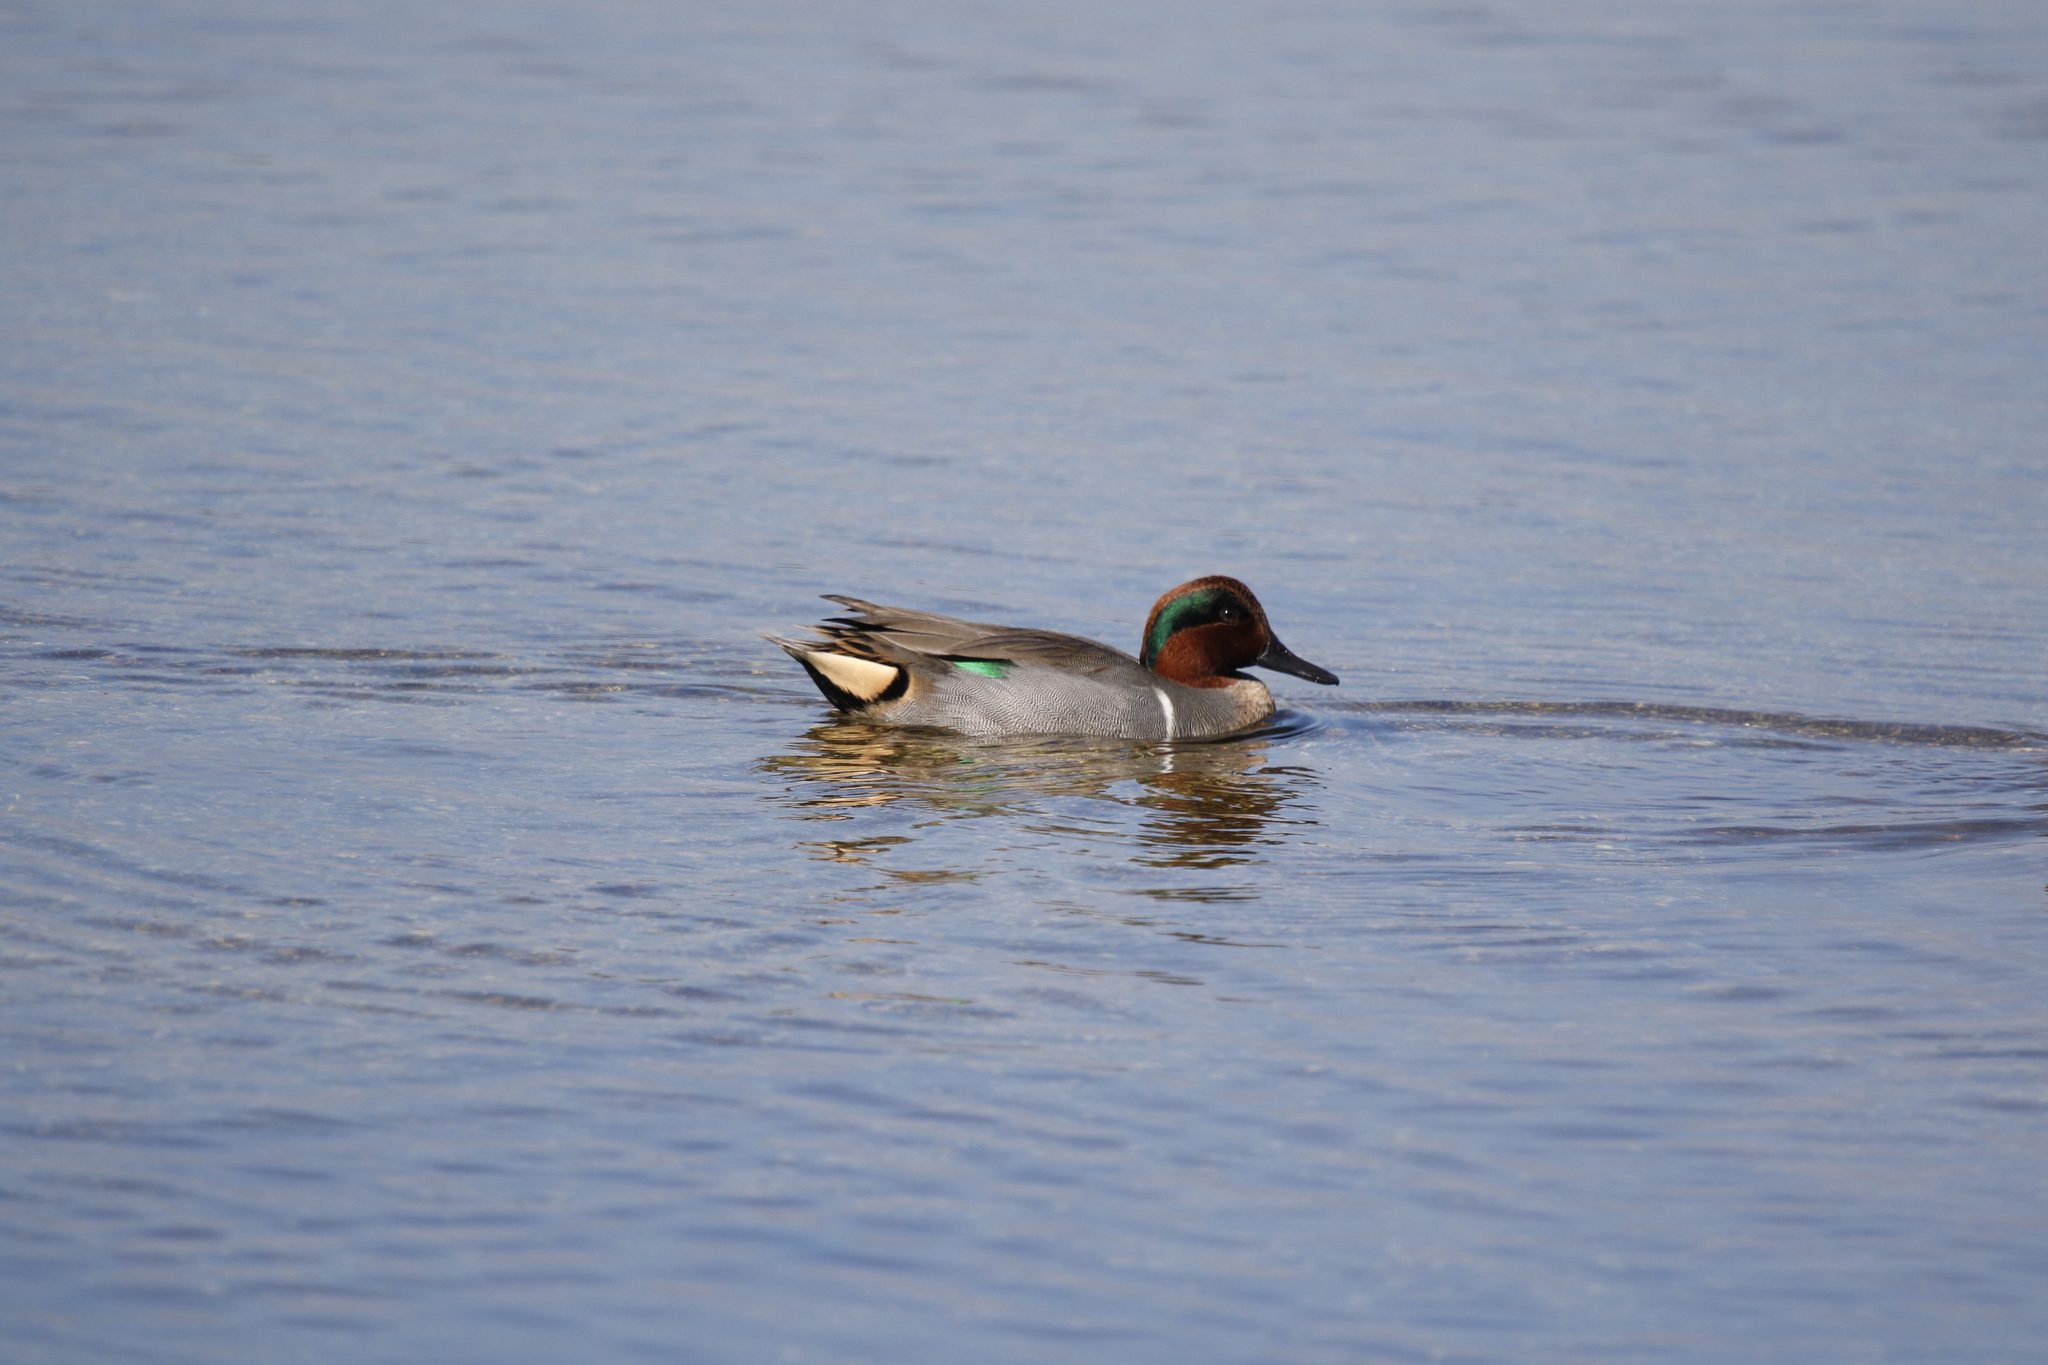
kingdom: Animalia
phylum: Chordata
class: Aves
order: Anseriformes
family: Anatidae
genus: Anas
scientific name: Anas crecca
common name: Eurasian teal
